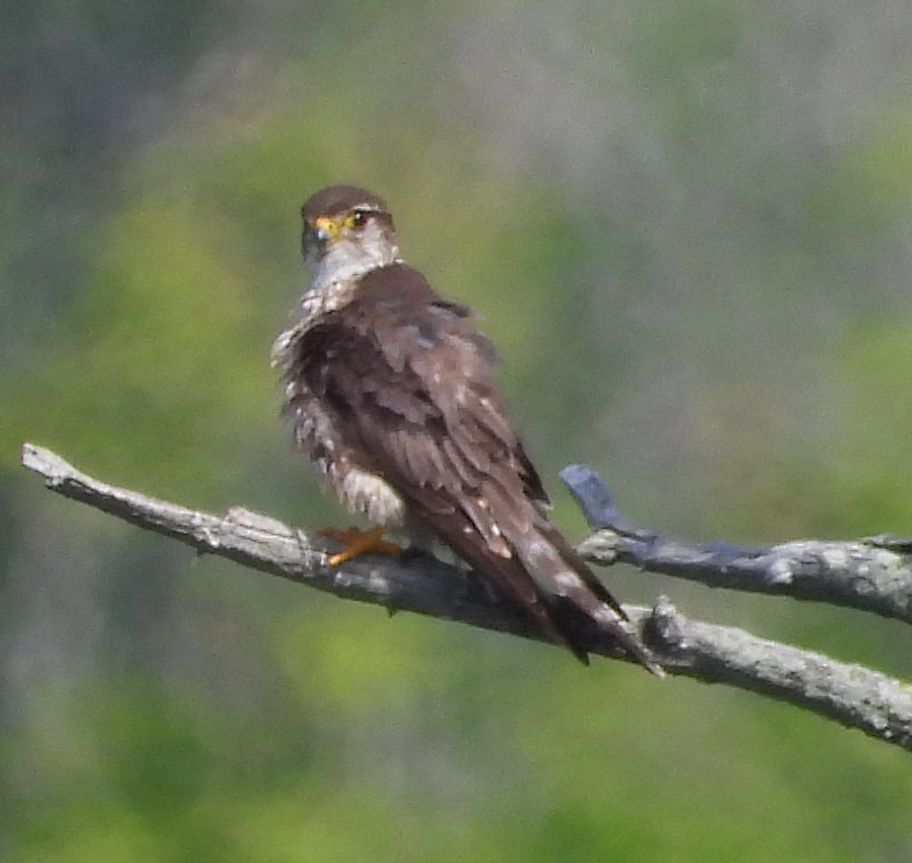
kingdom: Animalia
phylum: Chordata
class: Aves
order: Falconiformes
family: Falconidae
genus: Falco
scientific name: Falco columbarius
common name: Merlin
